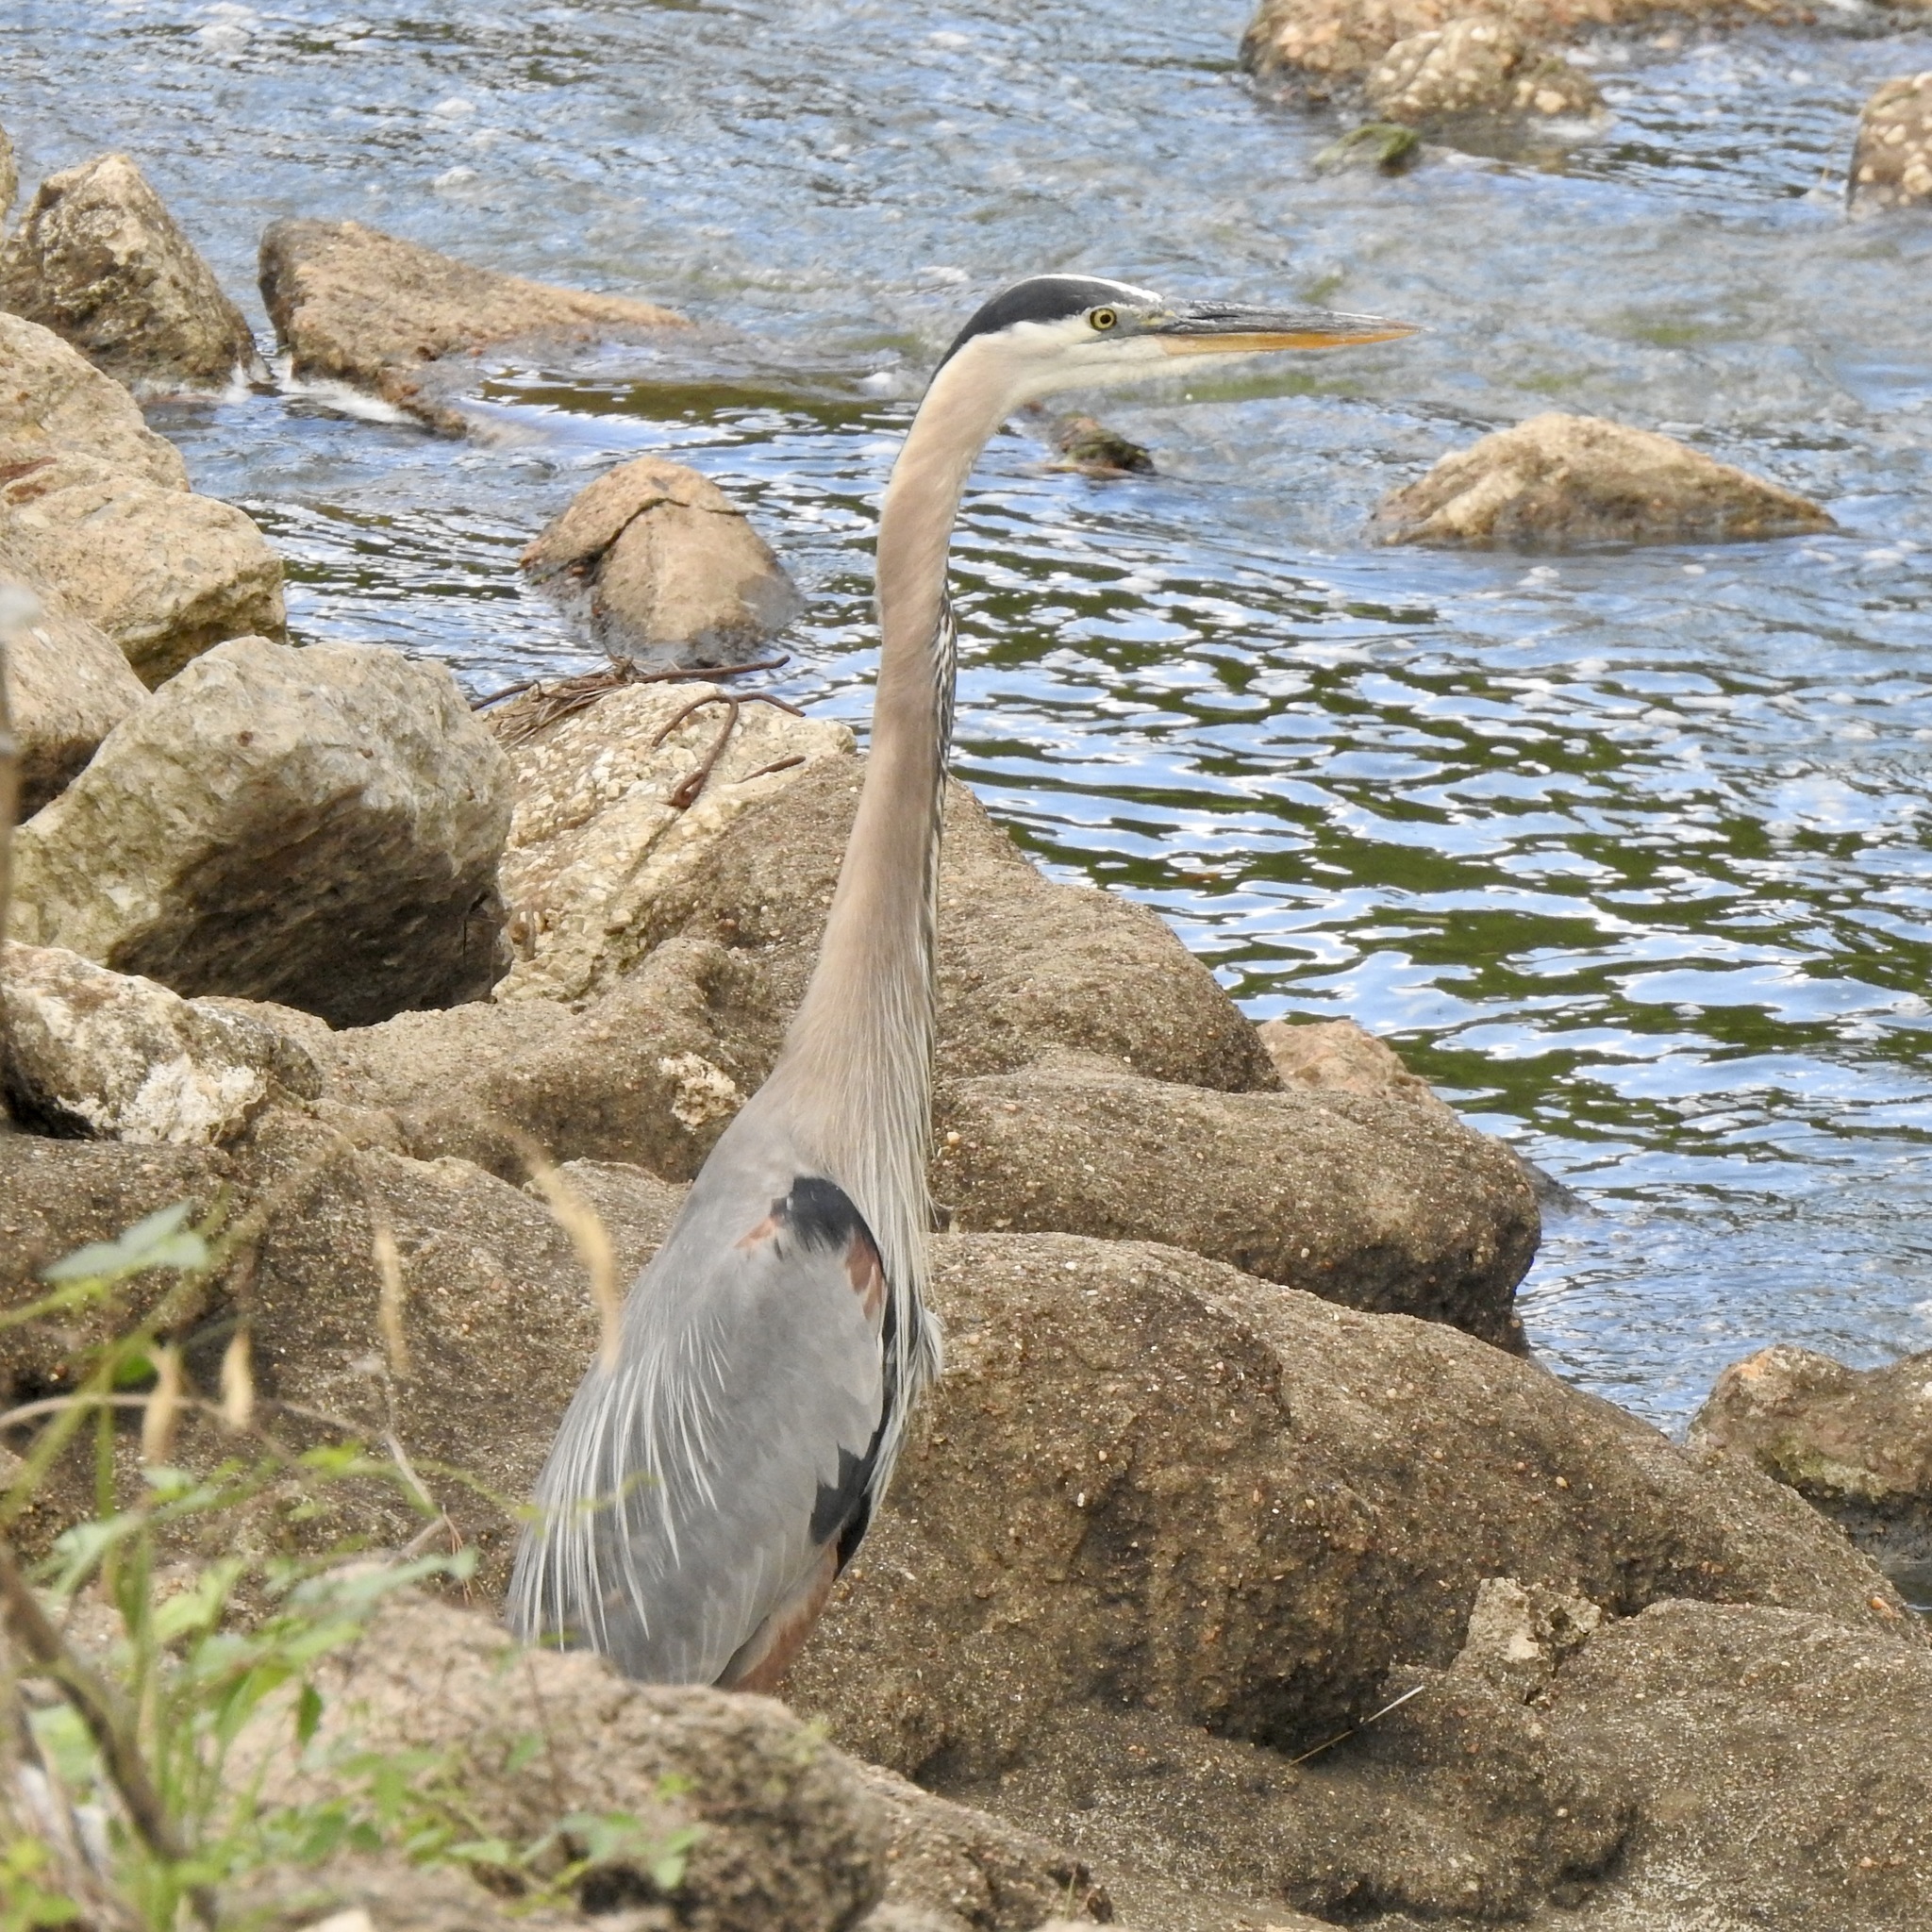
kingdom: Animalia
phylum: Chordata
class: Aves
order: Pelecaniformes
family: Ardeidae
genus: Ardea
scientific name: Ardea herodias
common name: Great blue heron
